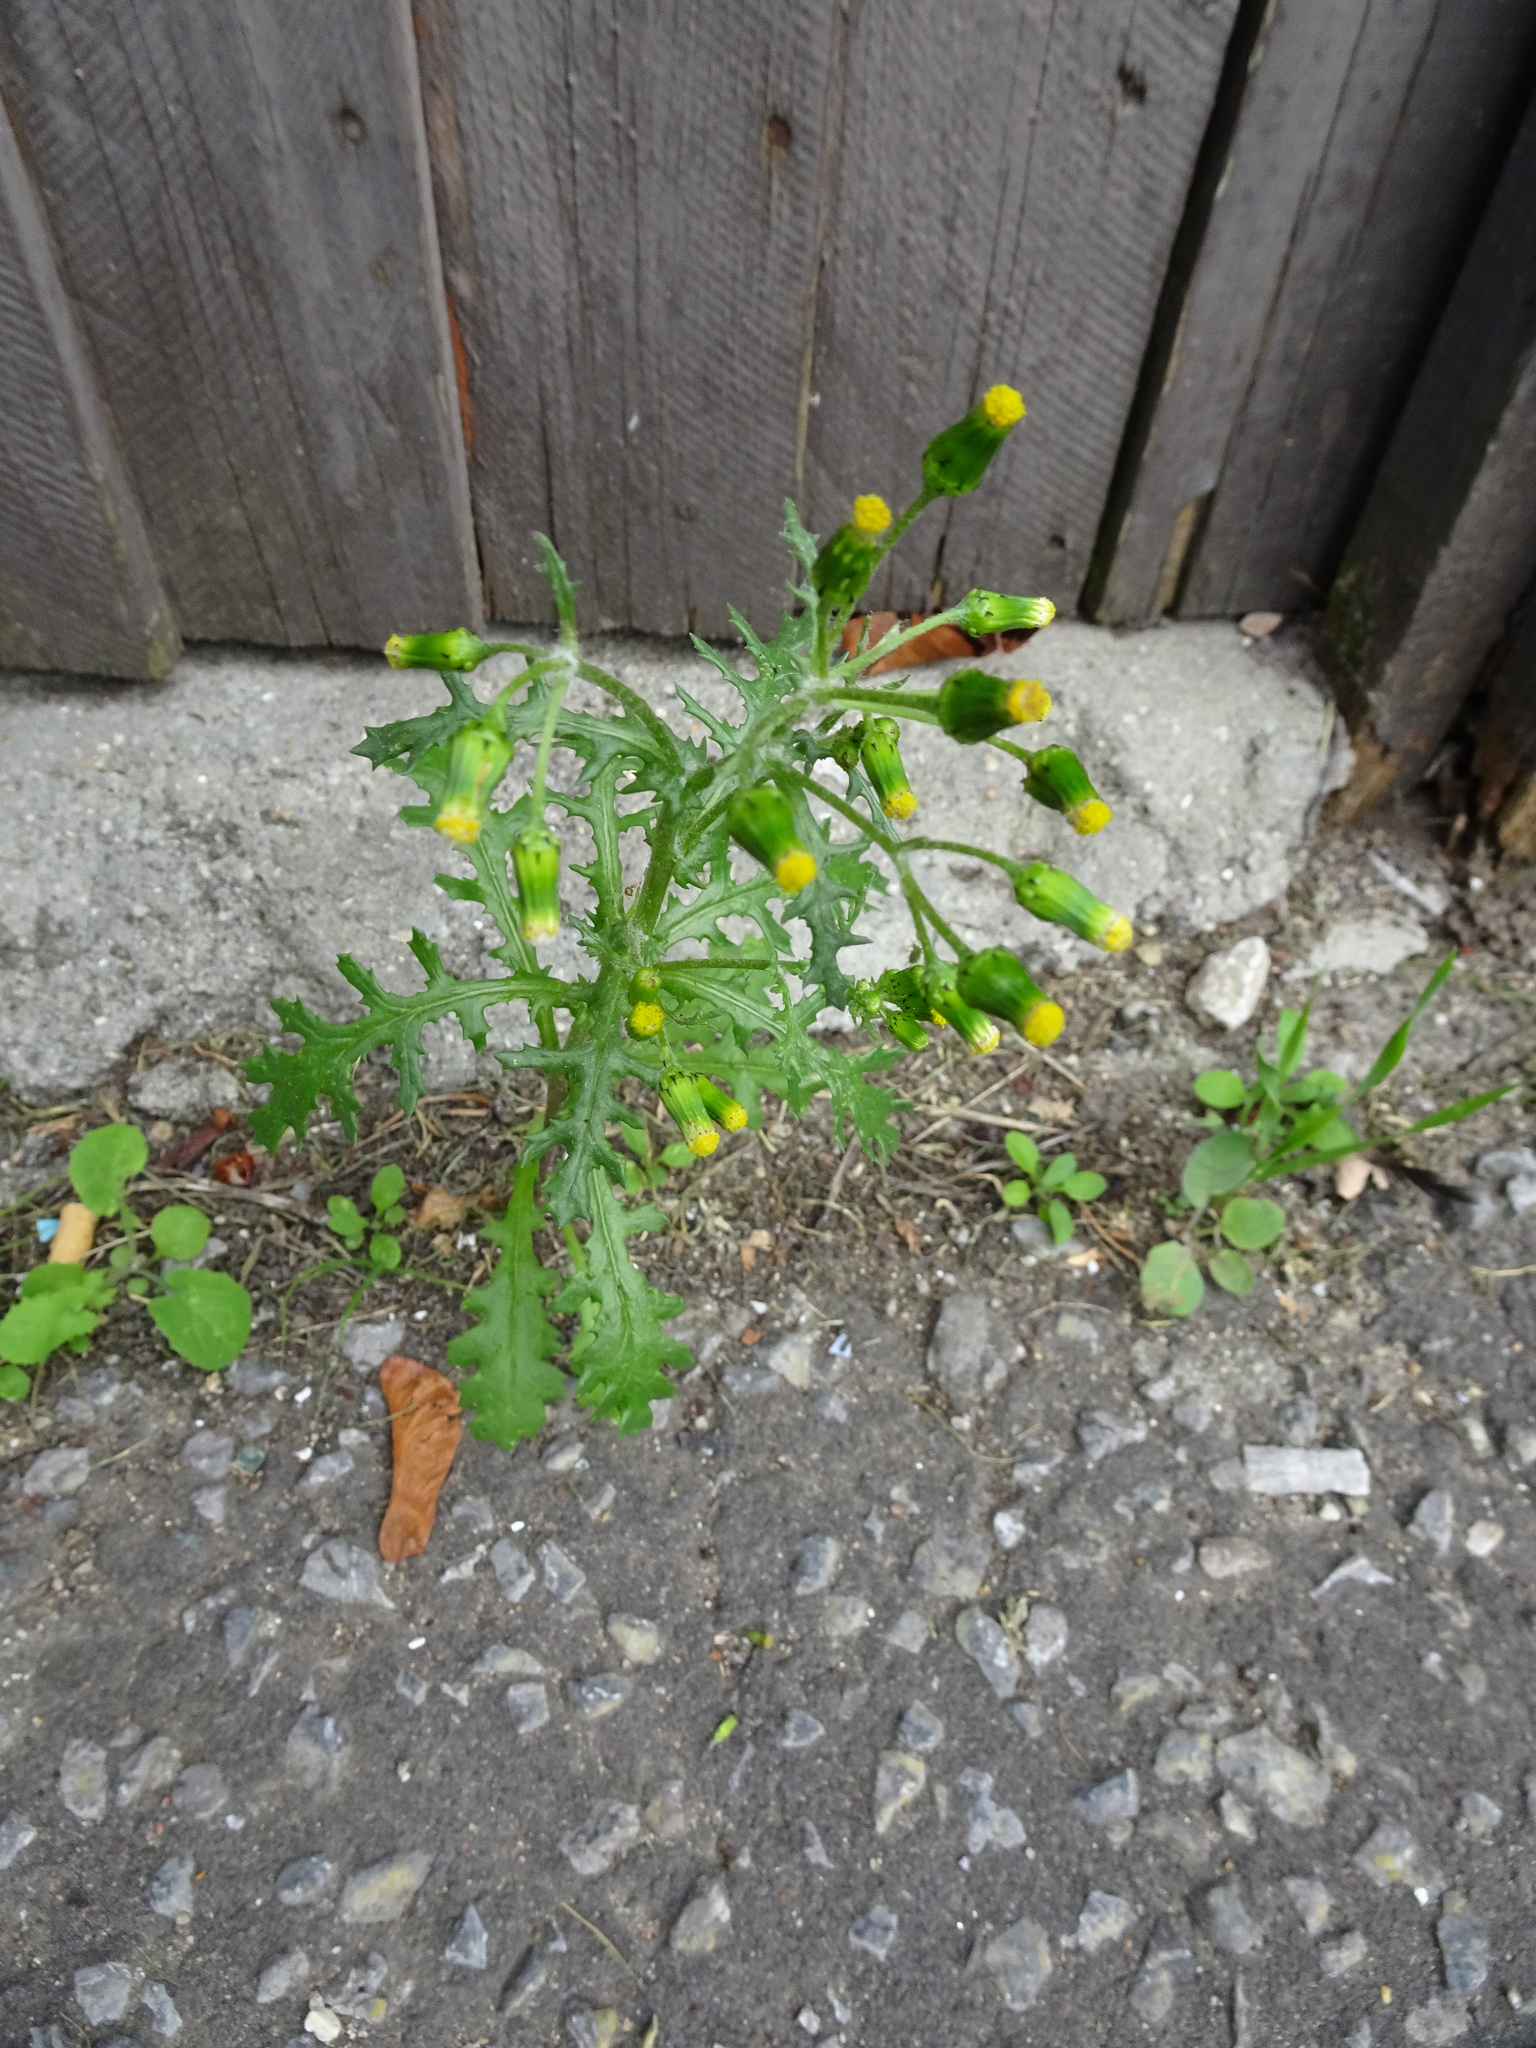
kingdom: Plantae
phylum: Tracheophyta
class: Magnoliopsida
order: Asterales
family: Asteraceae
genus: Senecio
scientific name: Senecio vulgaris
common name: Old-man-in-the-spring
